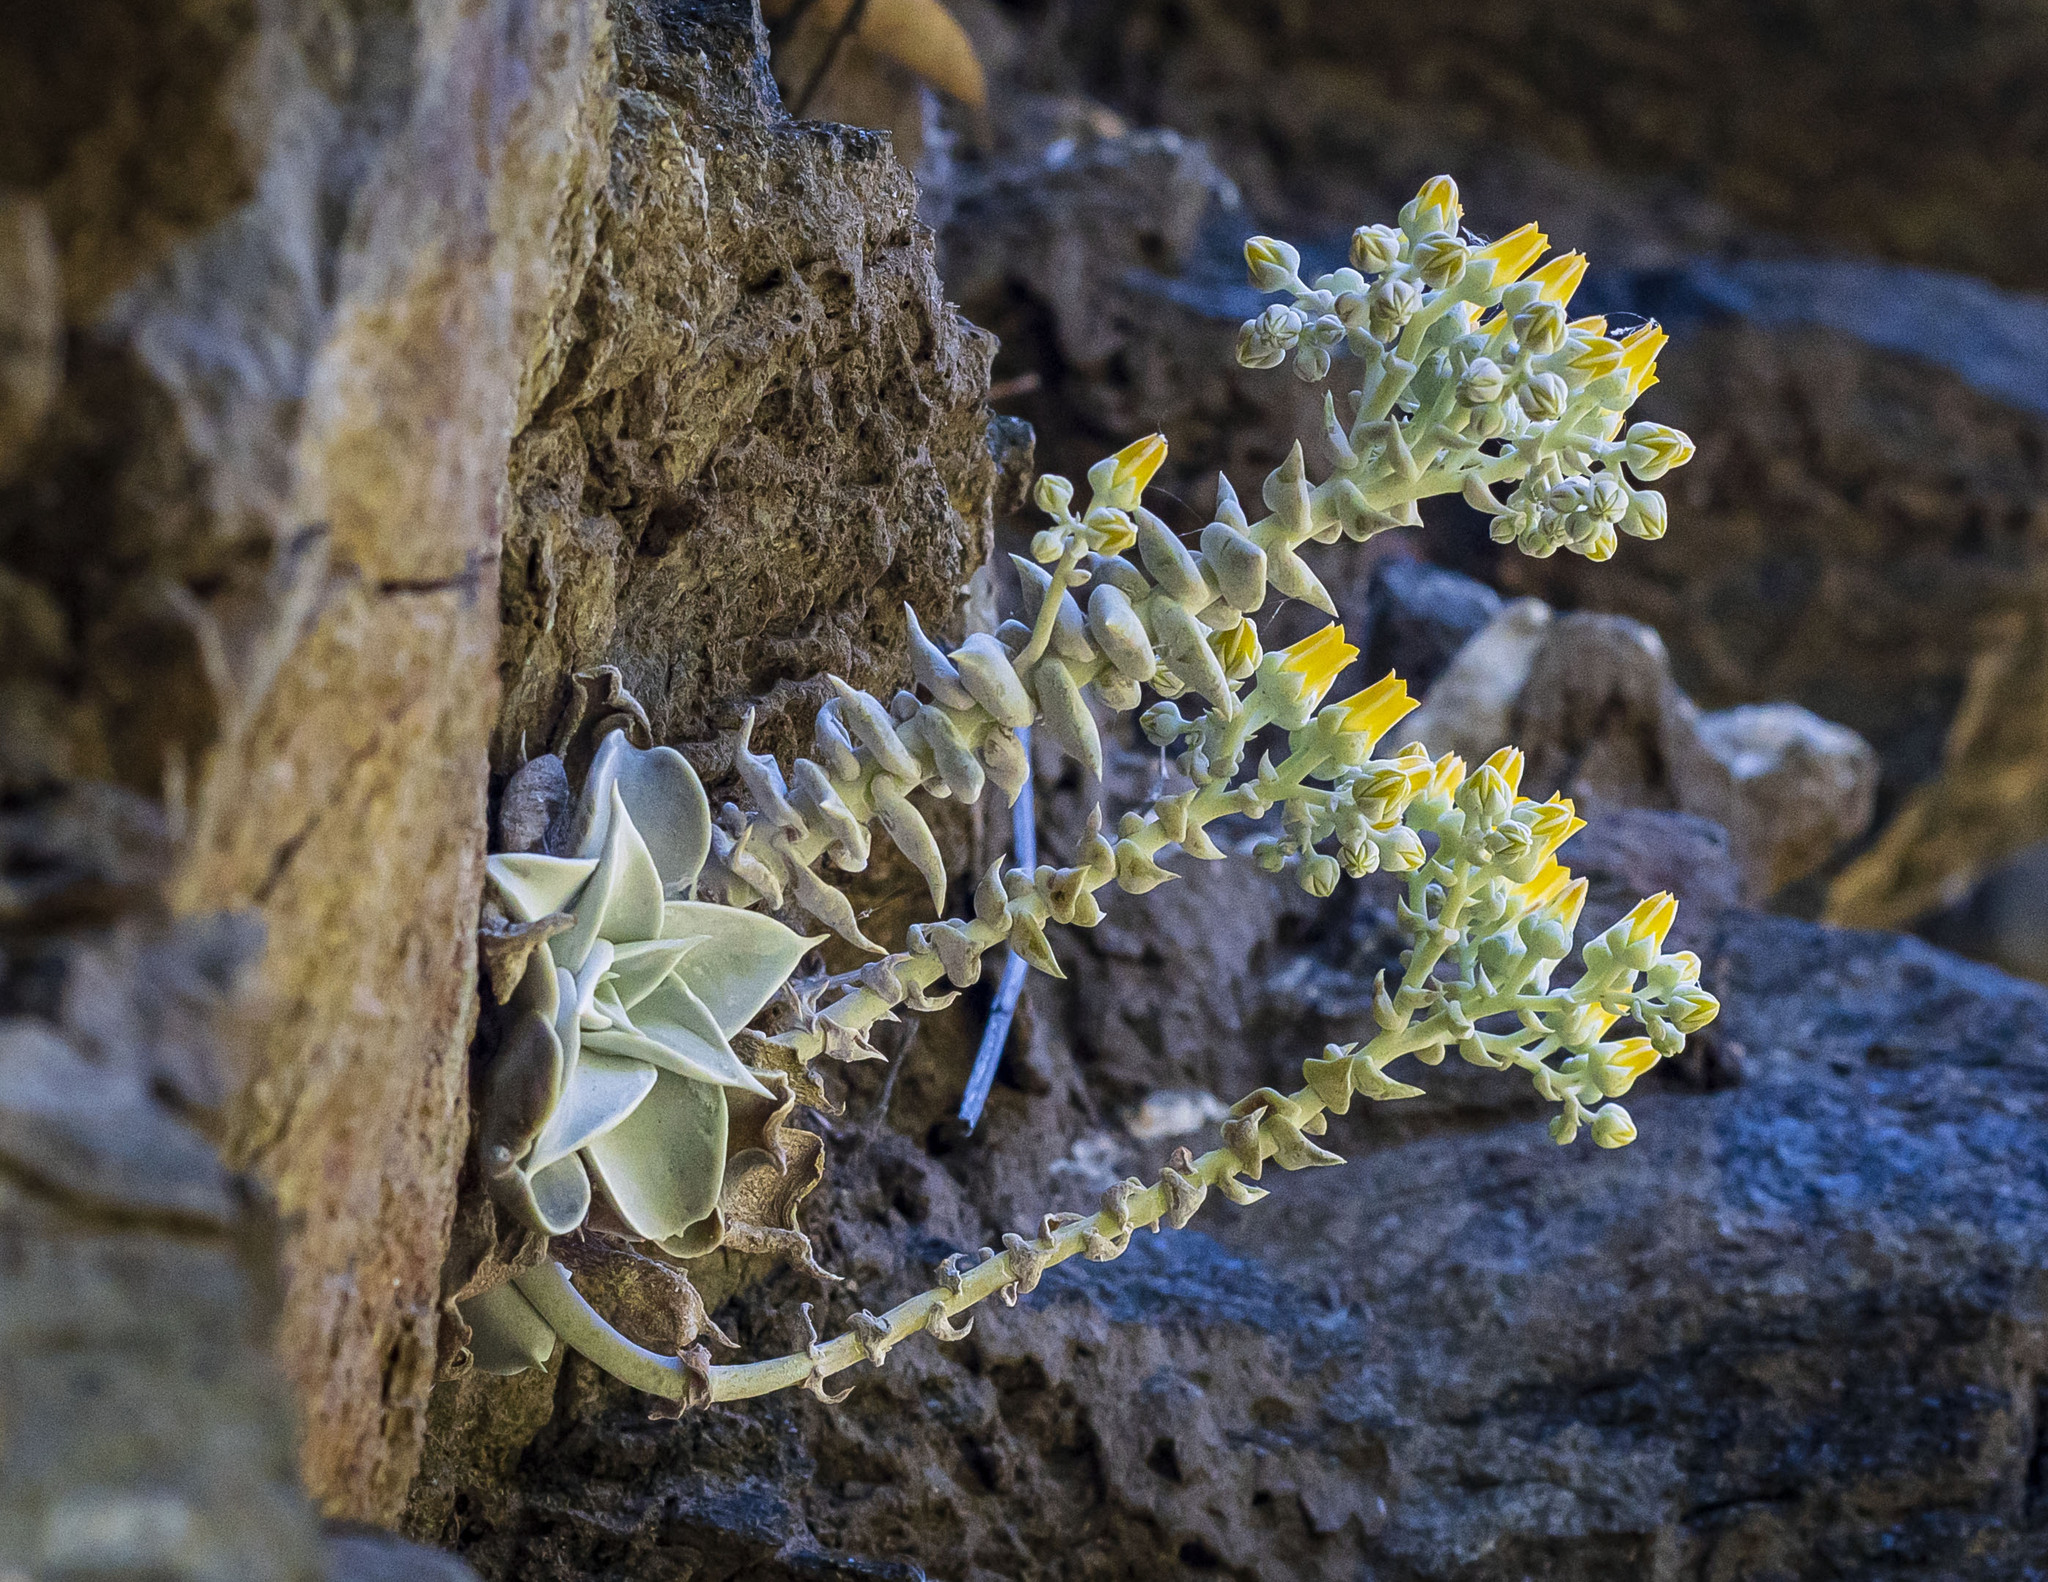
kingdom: Plantae
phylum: Tracheophyta
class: Magnoliopsida
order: Saxifragales
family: Crassulaceae
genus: Dudleya
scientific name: Dudleya cymosa
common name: Canyon dudleya
